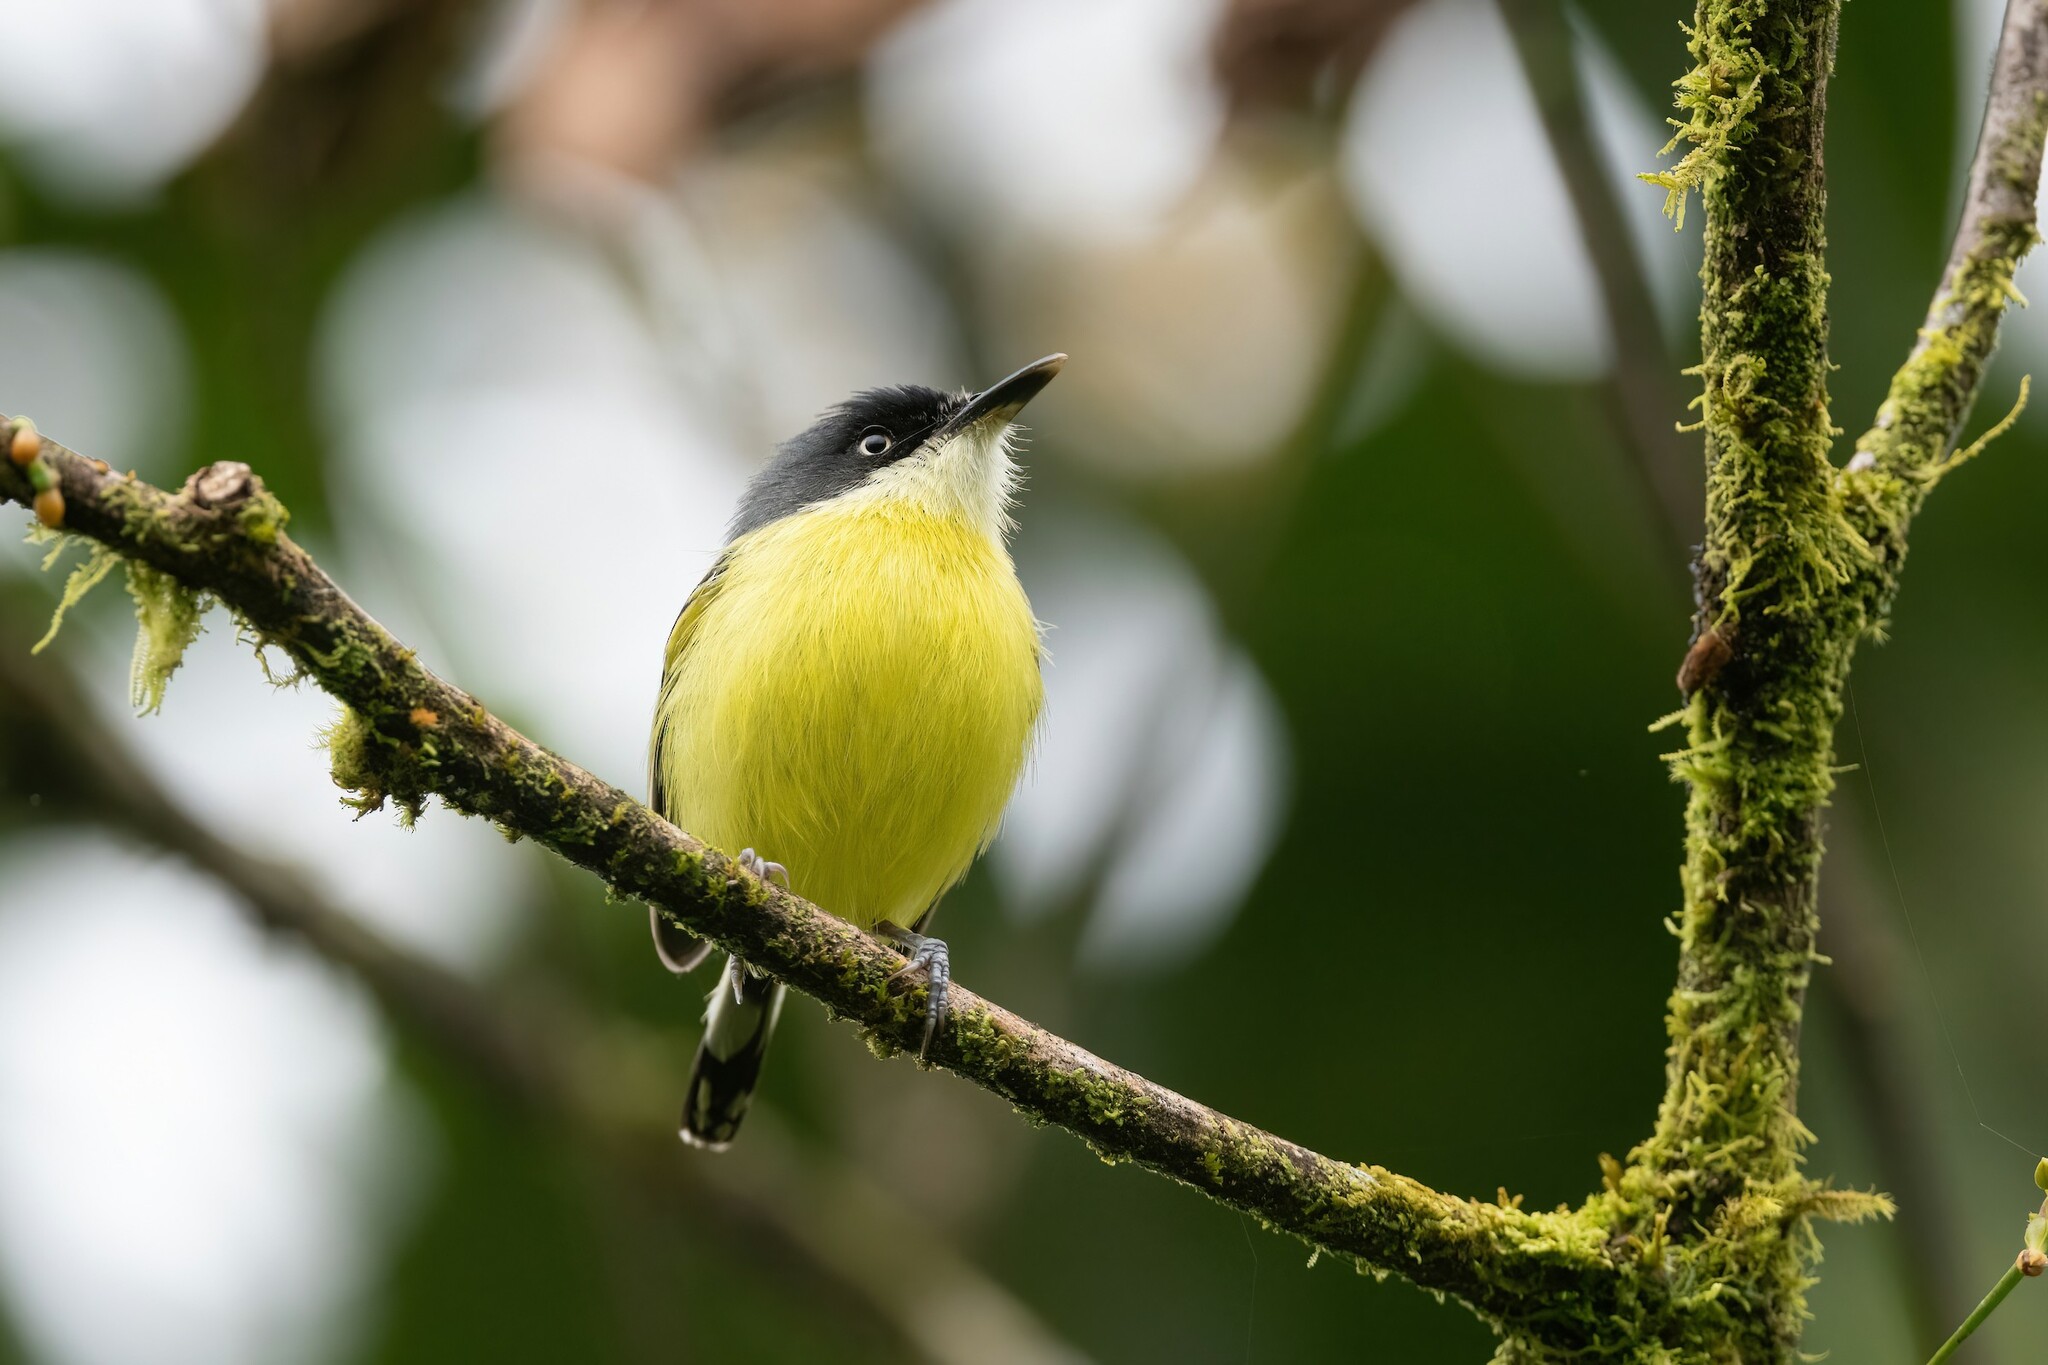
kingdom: Animalia
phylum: Chordata
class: Aves
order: Passeriformes
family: Tyrannidae
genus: Todirostrum
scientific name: Todirostrum cinereum
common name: Common tody-flycatcher
